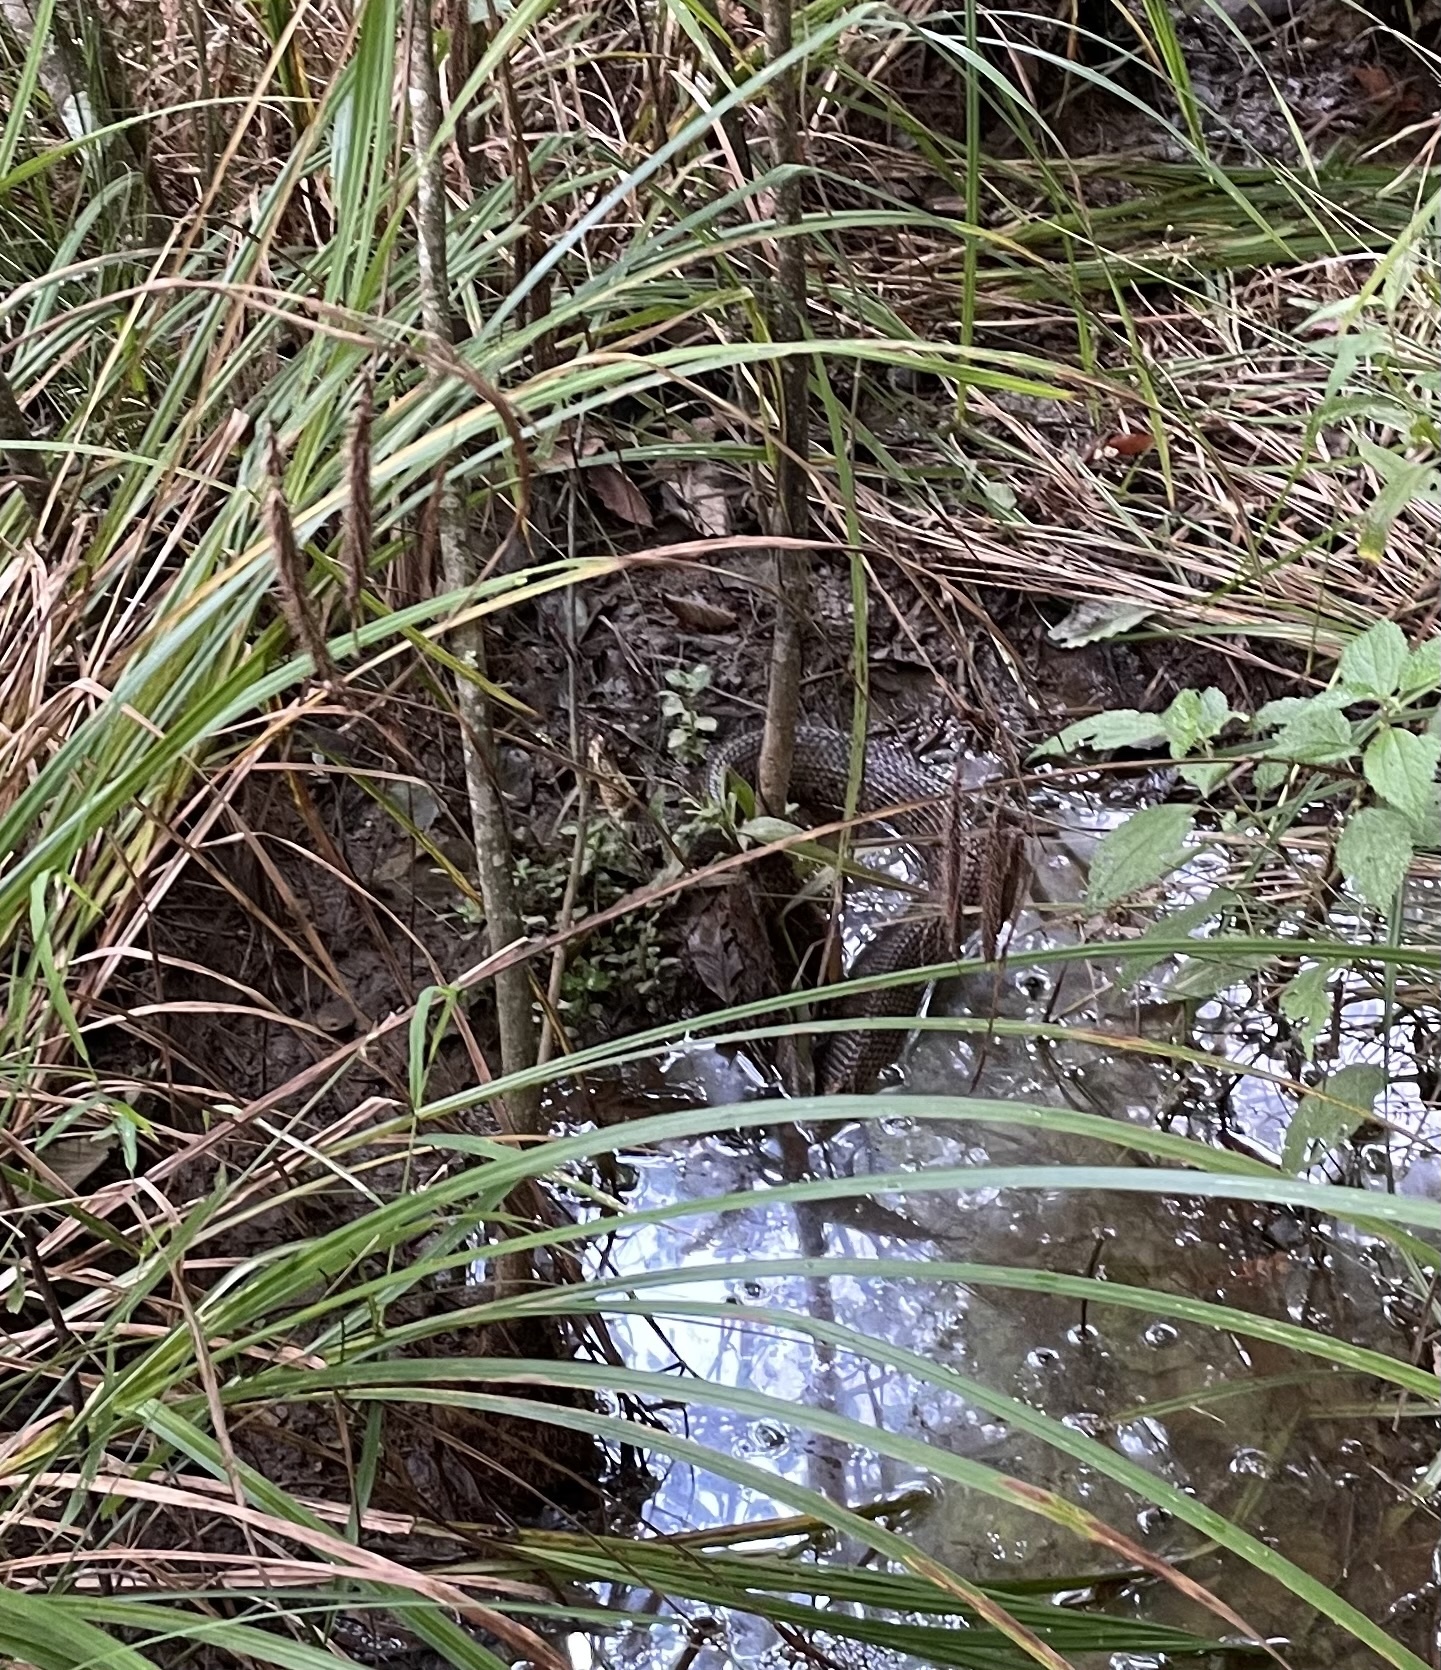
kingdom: Animalia
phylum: Chordata
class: Squamata
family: Viperidae
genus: Agkistrodon
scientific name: Agkistrodon piscivorus
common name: Cottonmouth
